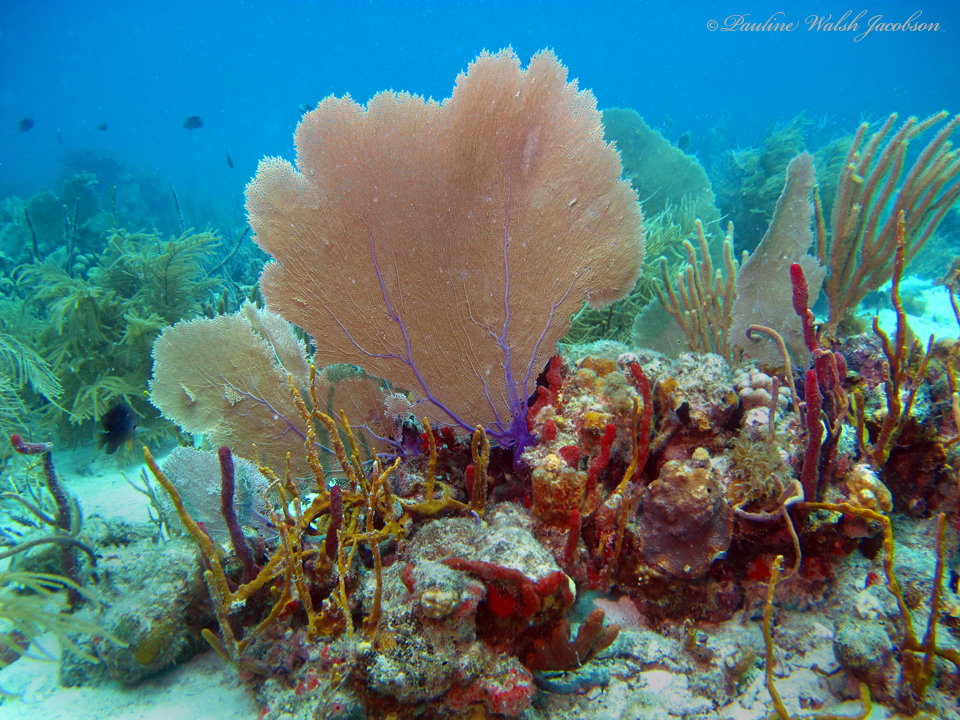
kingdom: Animalia
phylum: Cnidaria
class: Anthozoa
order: Malacalcyonacea
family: Gorgoniidae
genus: Gorgonia
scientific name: Gorgonia ventalina
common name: Common sea fan
